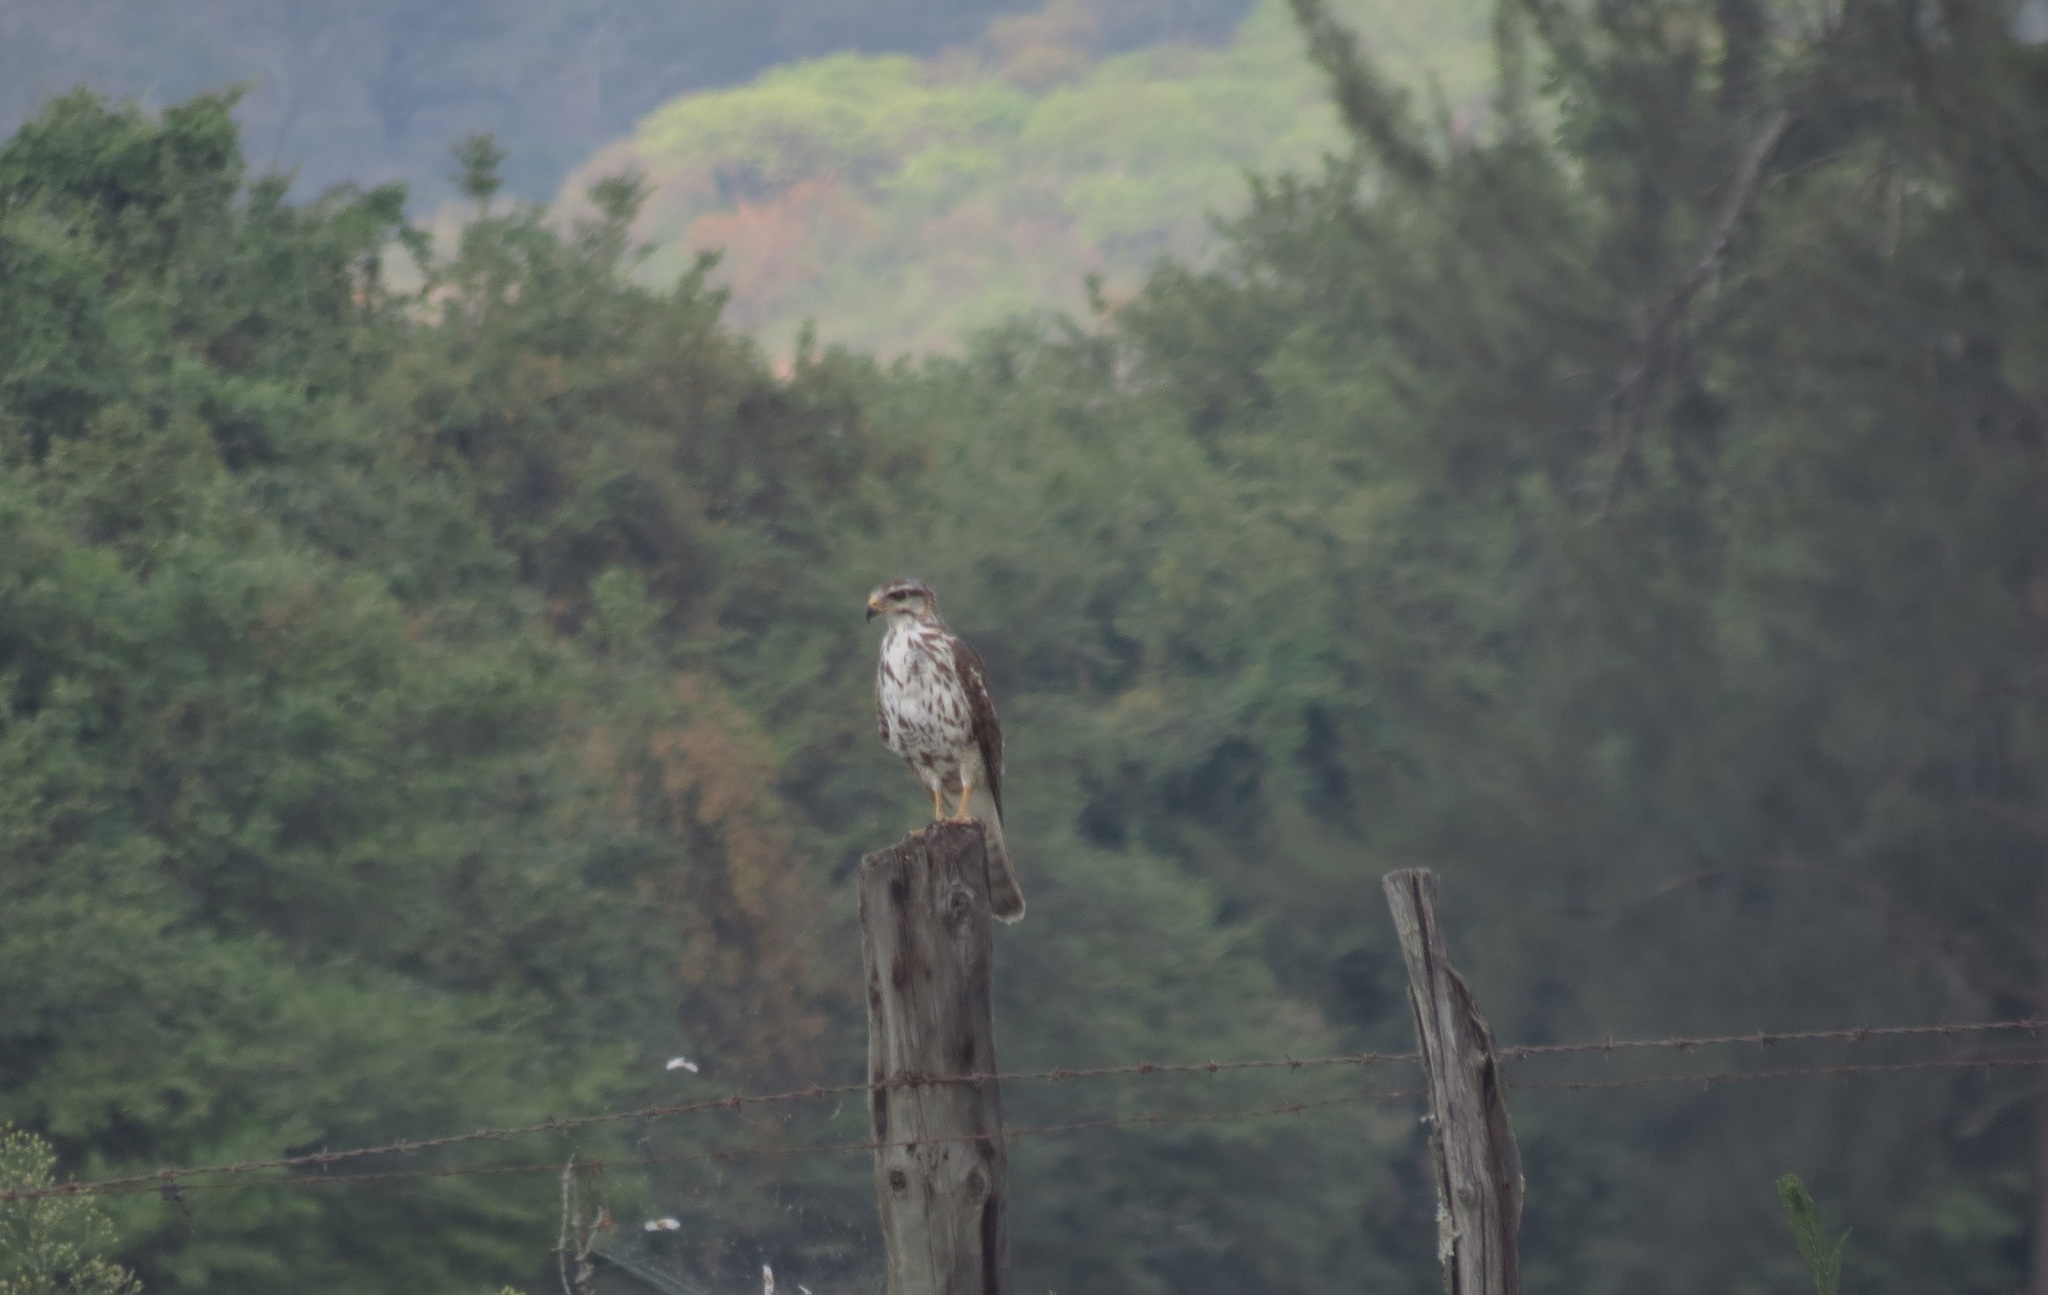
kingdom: Animalia
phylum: Chordata
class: Aves
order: Accipitriformes
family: Accipitridae
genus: Buteo
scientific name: Buteo nitidus
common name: Grey-lined hawk
